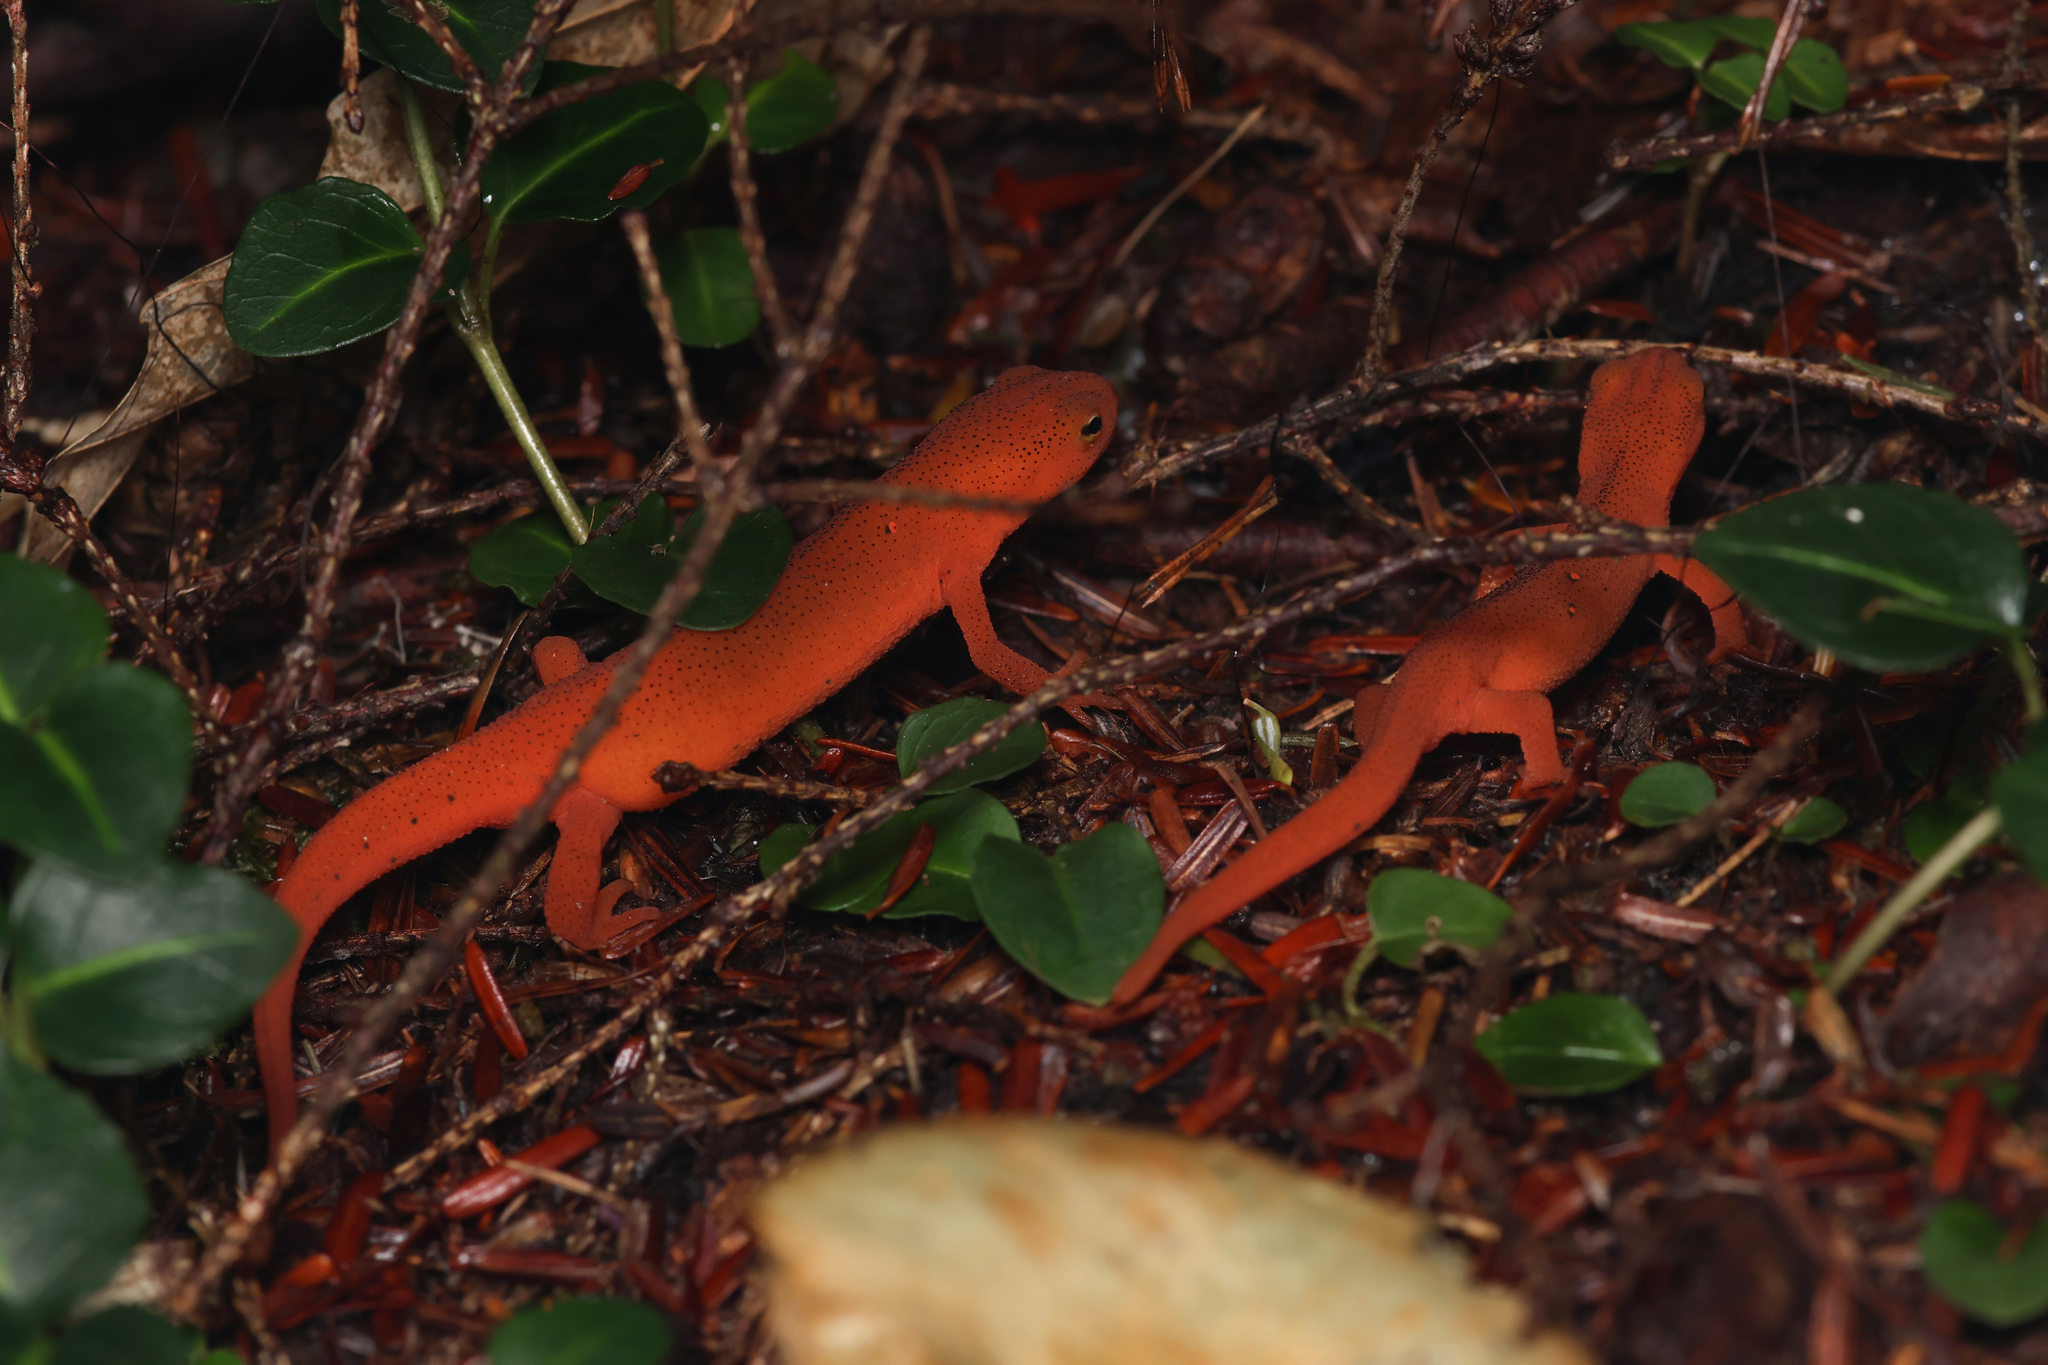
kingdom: Animalia
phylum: Chordata
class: Amphibia
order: Caudata
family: Salamandridae
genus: Notophthalmus
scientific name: Notophthalmus viridescens
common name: Eastern newt
